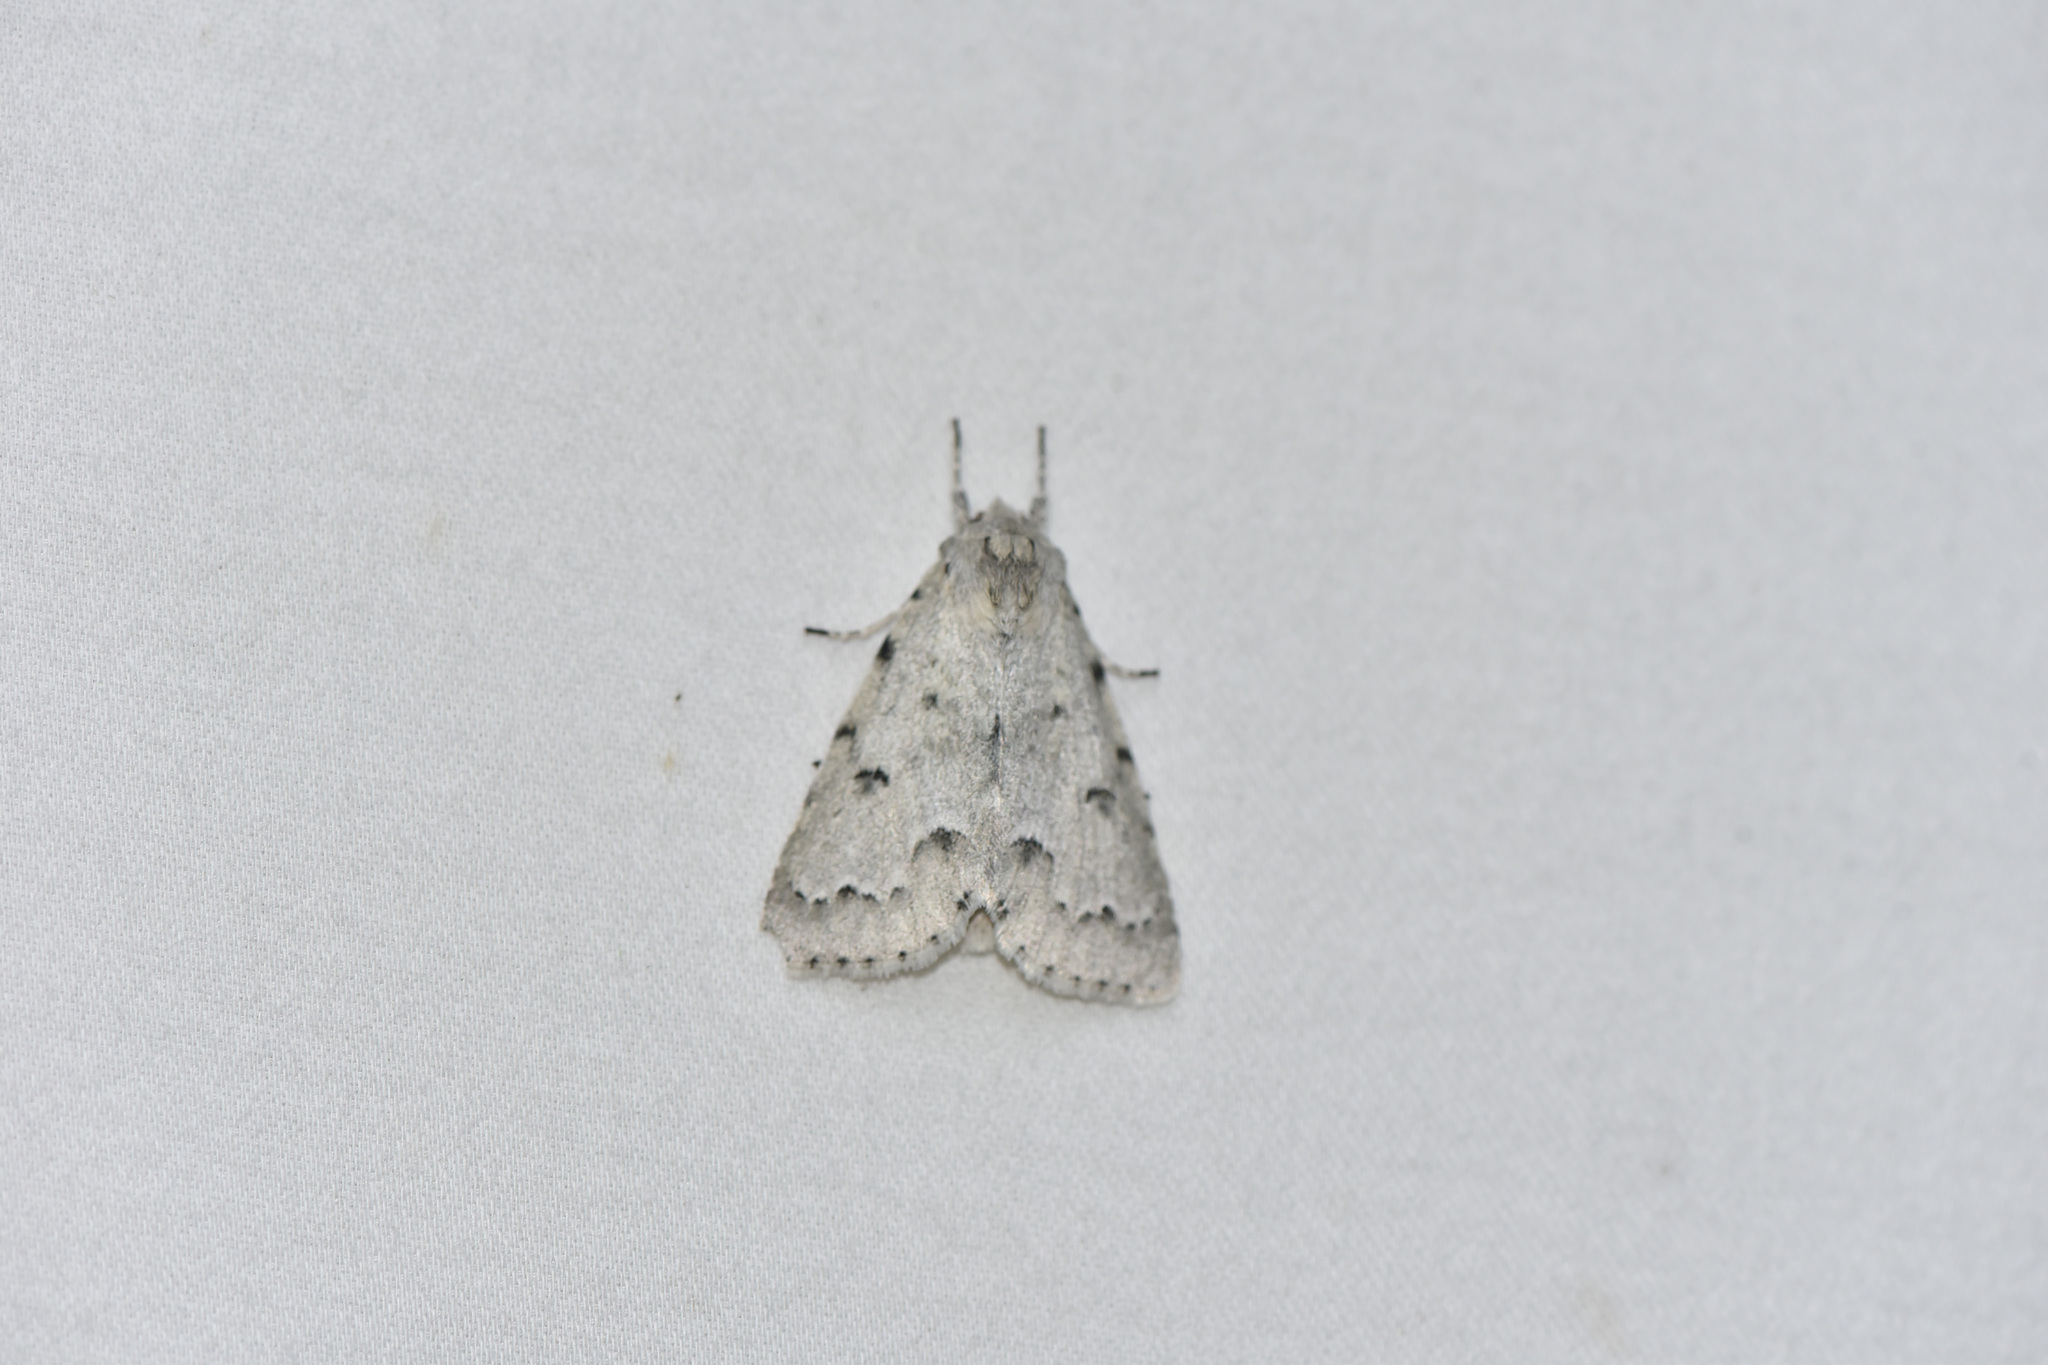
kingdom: Animalia
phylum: Arthropoda
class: Insecta
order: Lepidoptera
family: Noctuidae
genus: Acronicta
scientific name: Acronicta innotata
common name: Unmarked dagger
